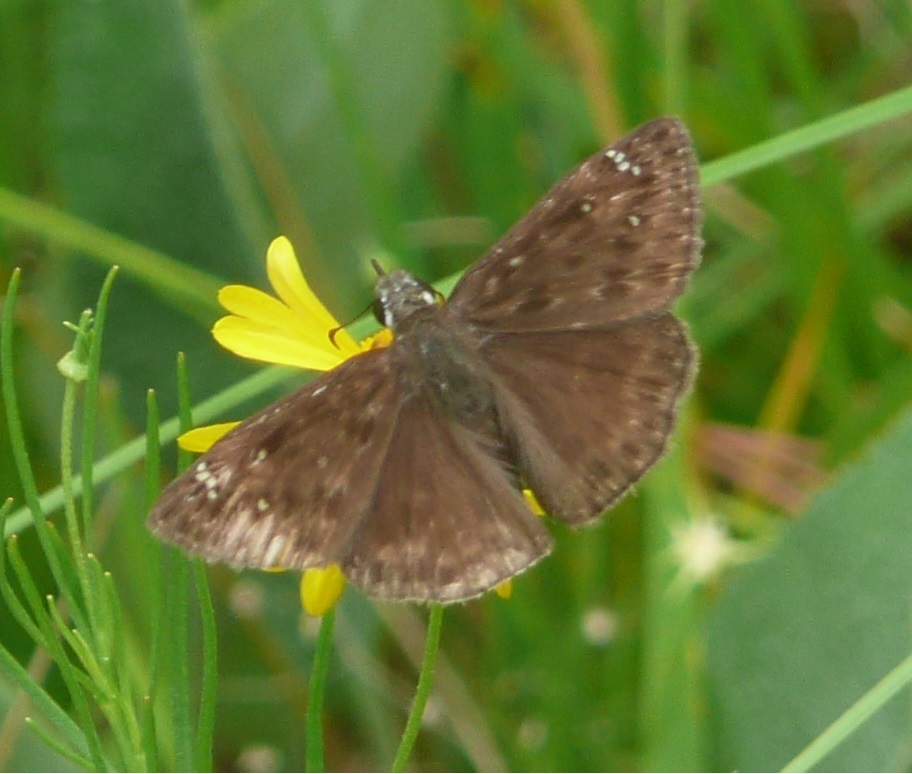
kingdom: Animalia
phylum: Arthropoda
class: Insecta
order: Lepidoptera
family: Hesperiidae
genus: Erynnis
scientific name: Erynnis horatius
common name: Horace's duskywing
